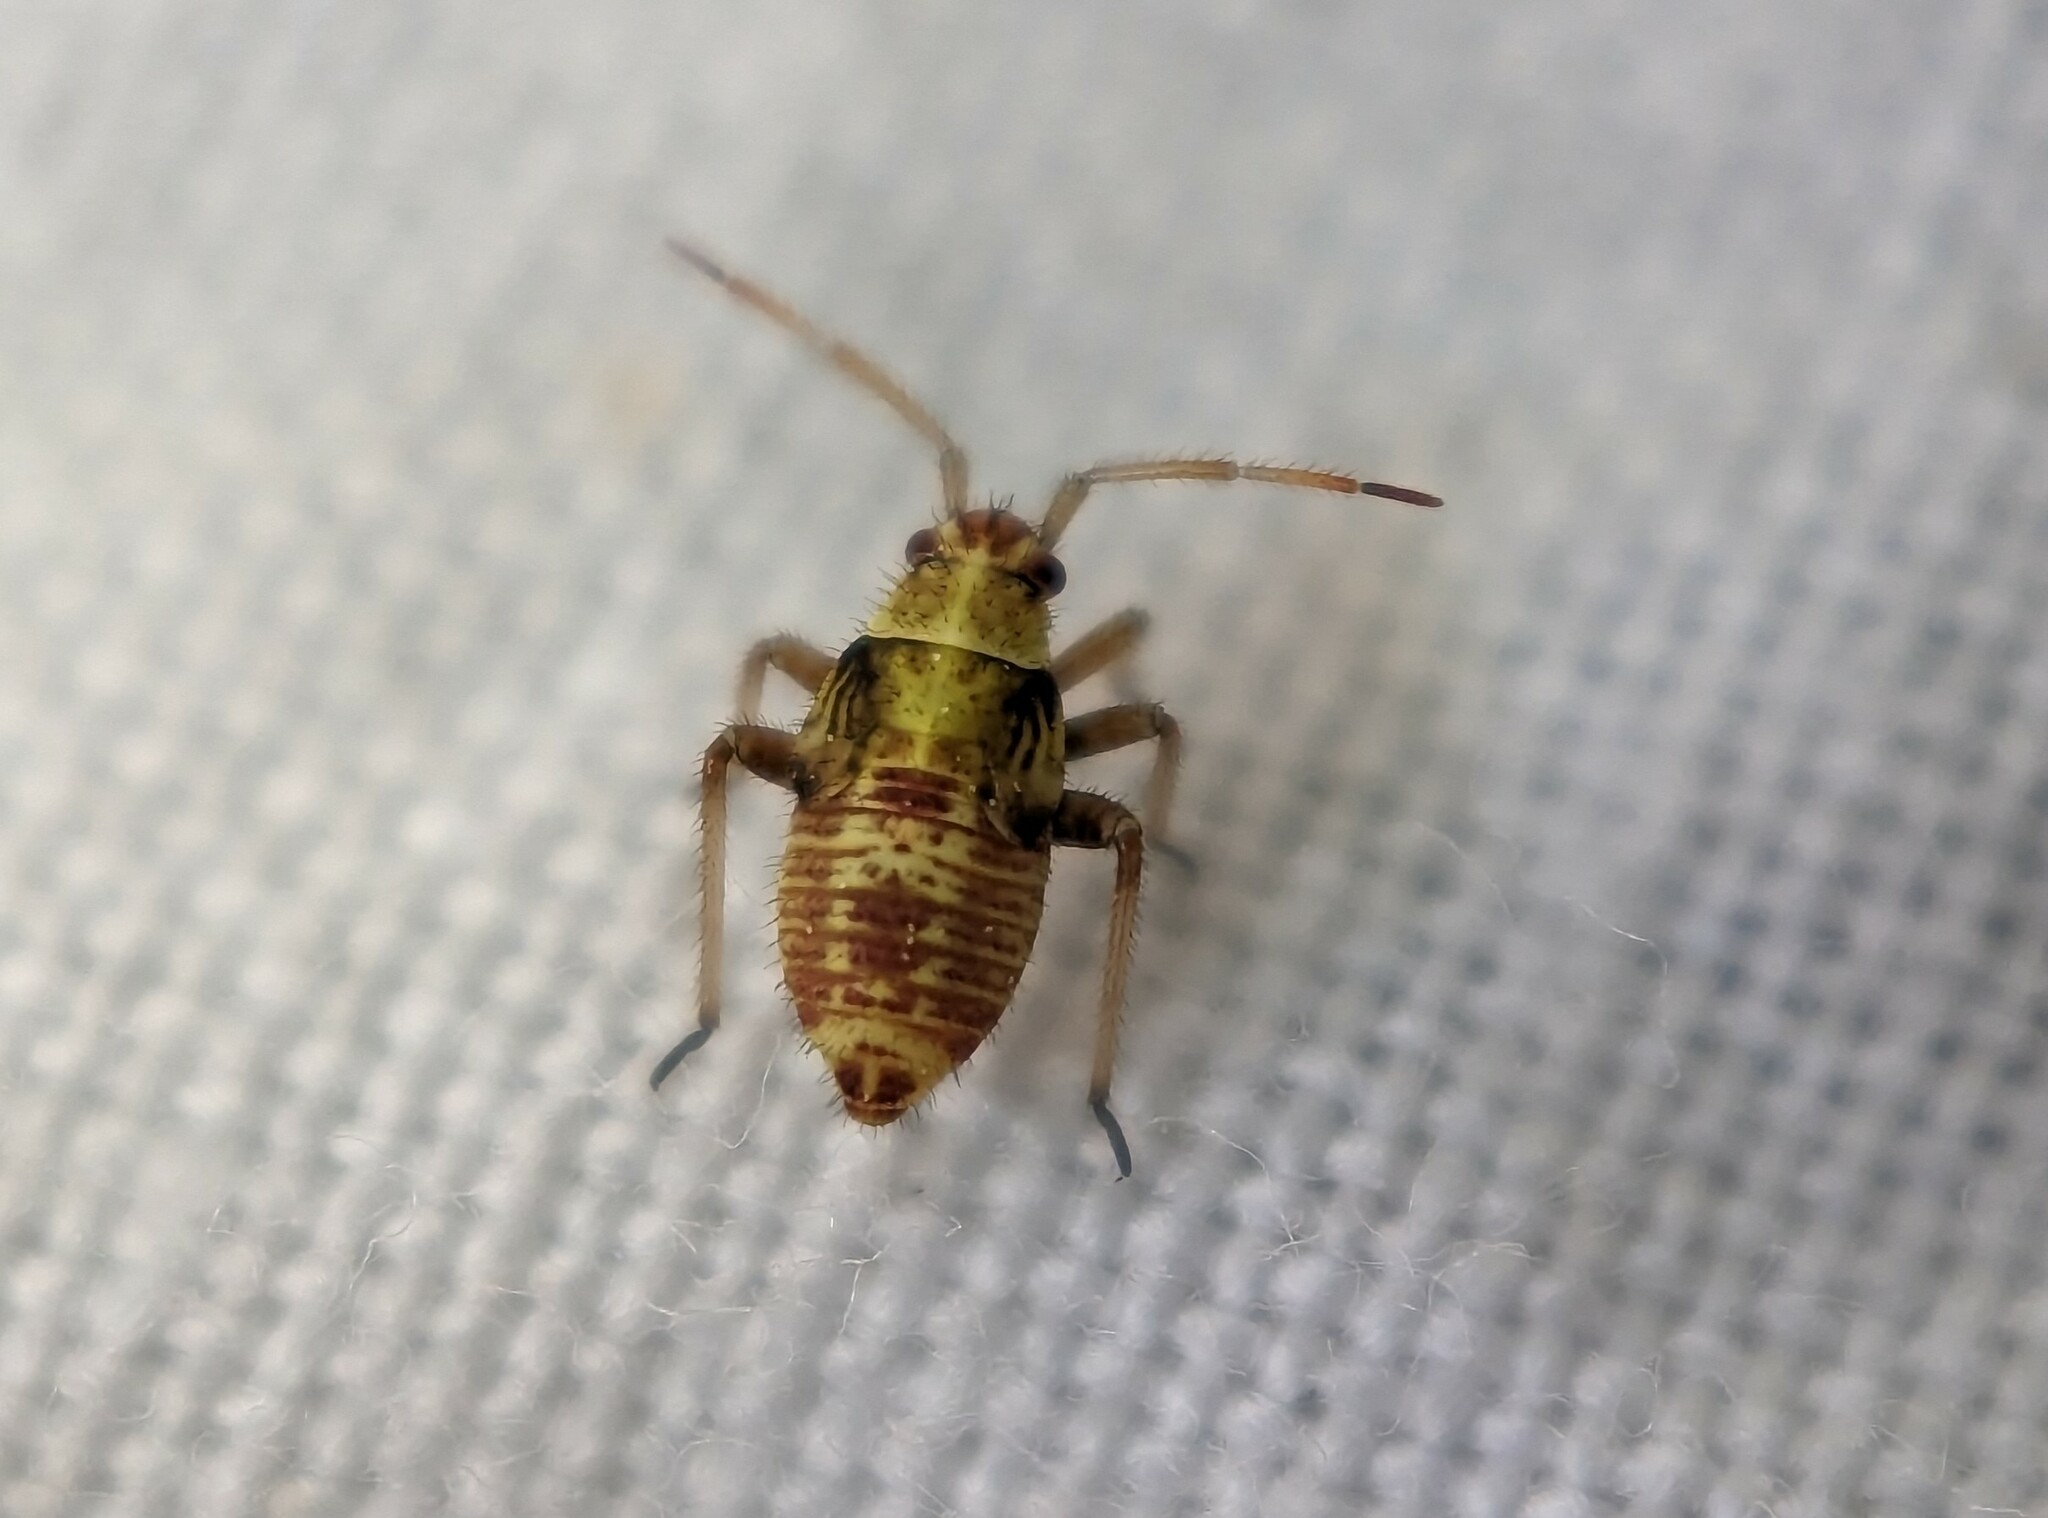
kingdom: Animalia
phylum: Arthropoda
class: Insecta
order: Hemiptera
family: Miridae
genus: Rhabdomiris
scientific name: Rhabdomiris striatellus
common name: Plant bug
